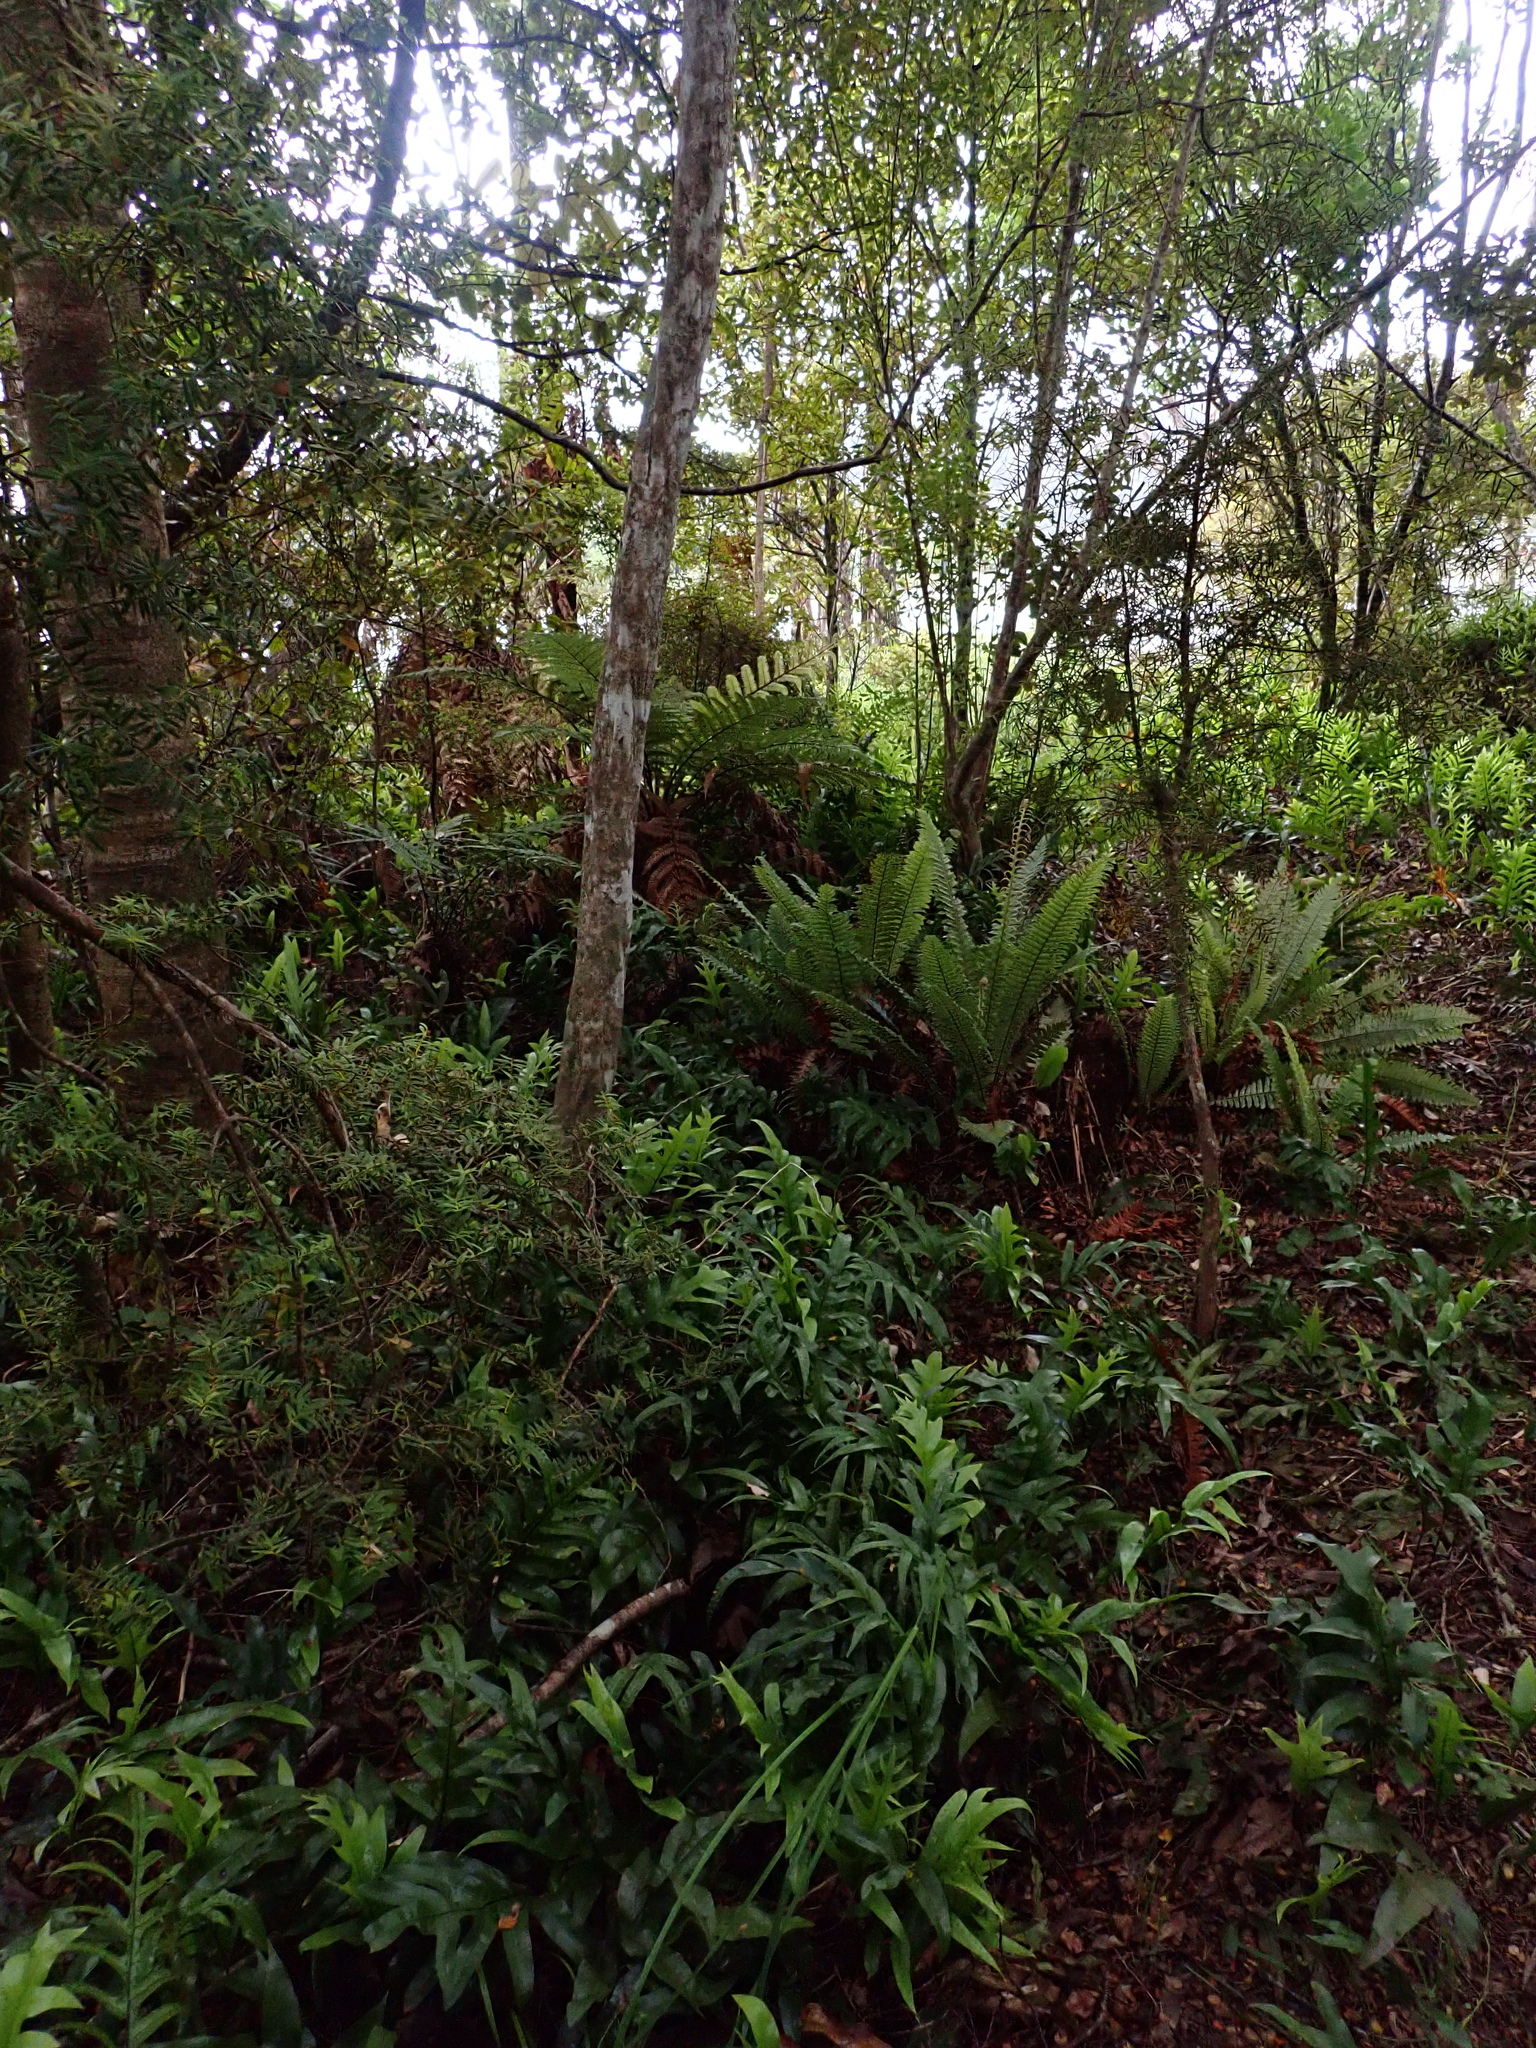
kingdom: Plantae
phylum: Tracheophyta
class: Polypodiopsida
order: Polypodiales
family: Polypodiaceae
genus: Lecanopteris
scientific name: Lecanopteris pustulata
